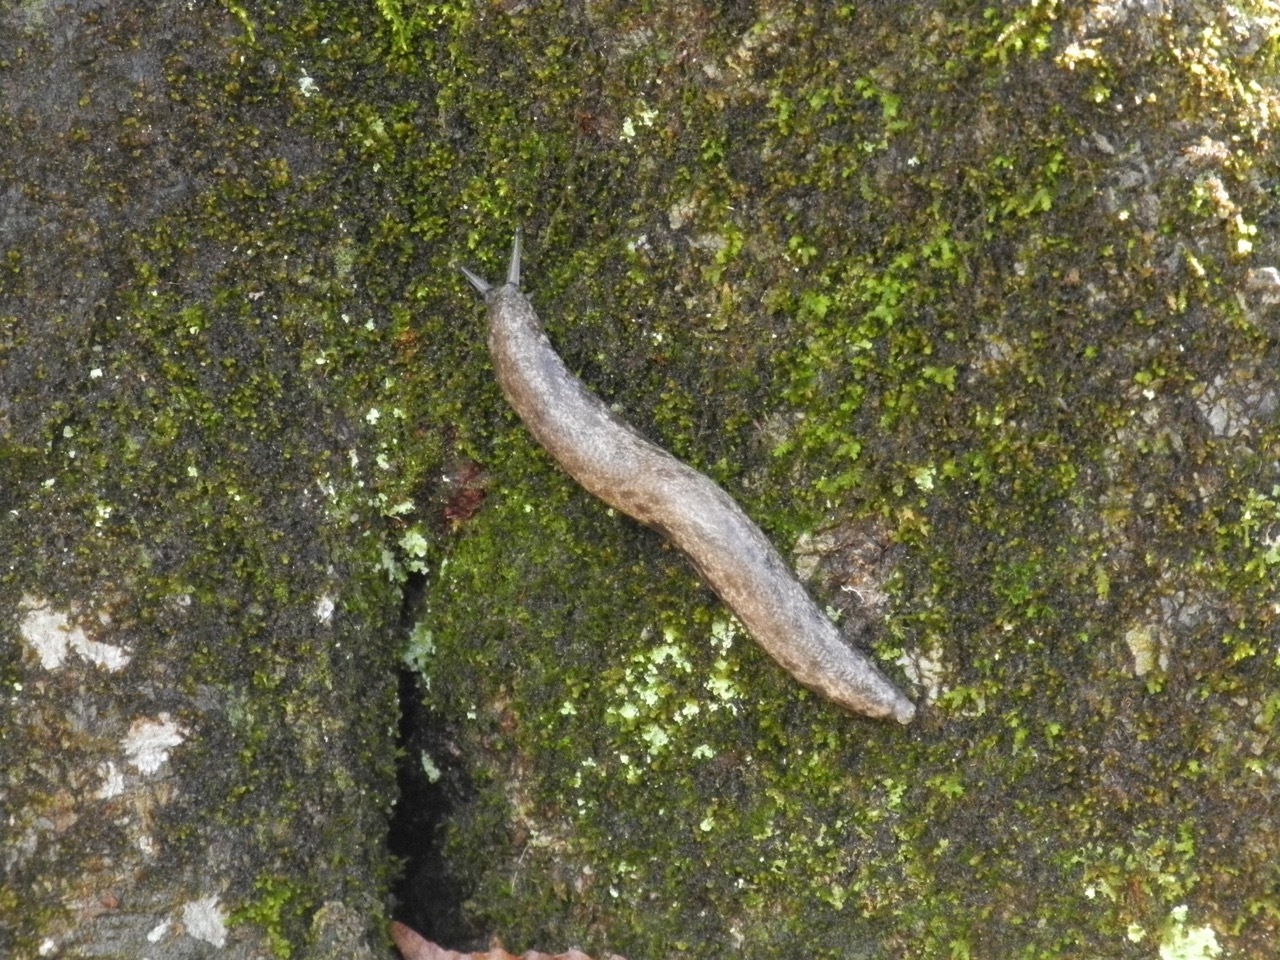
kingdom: Animalia
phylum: Mollusca
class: Gastropoda
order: Stylommatophora
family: Philomycidae
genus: Megapallifera
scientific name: Megapallifera mutabilis
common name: Changeable mantleslug
